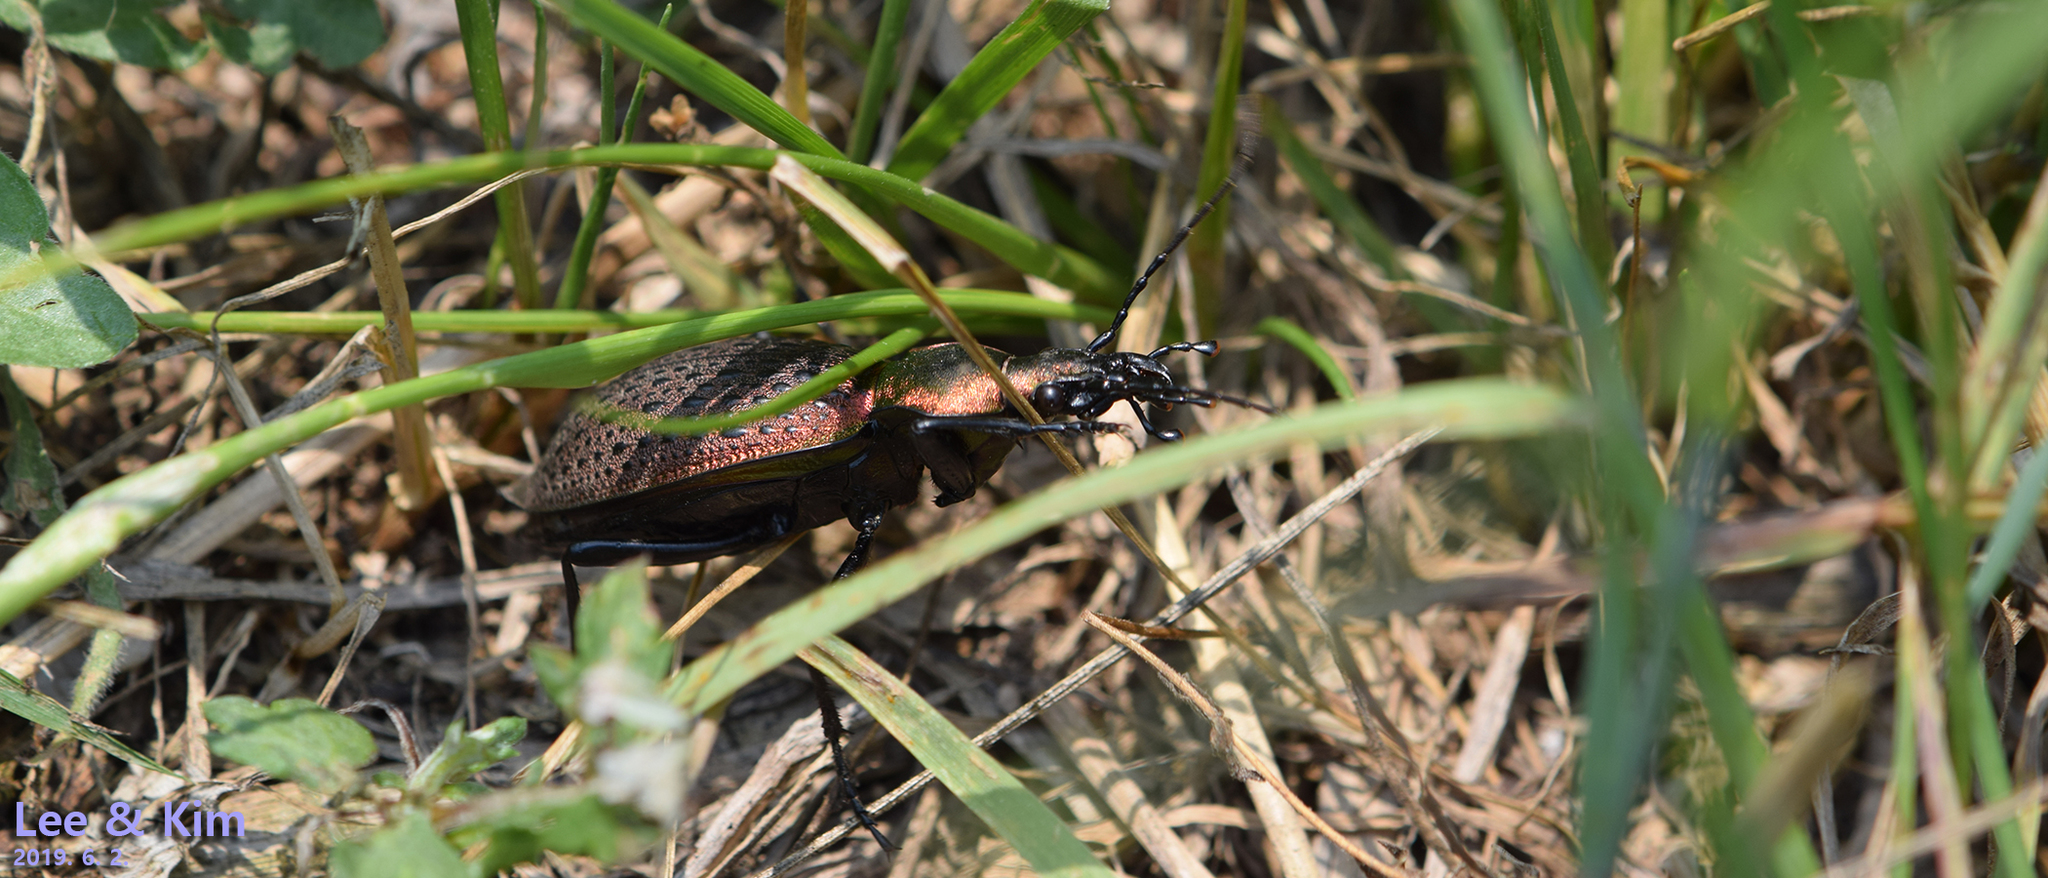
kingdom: Animalia
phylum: Arthropoda
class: Insecta
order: Coleoptera
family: Carabidae
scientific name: Carabidae
